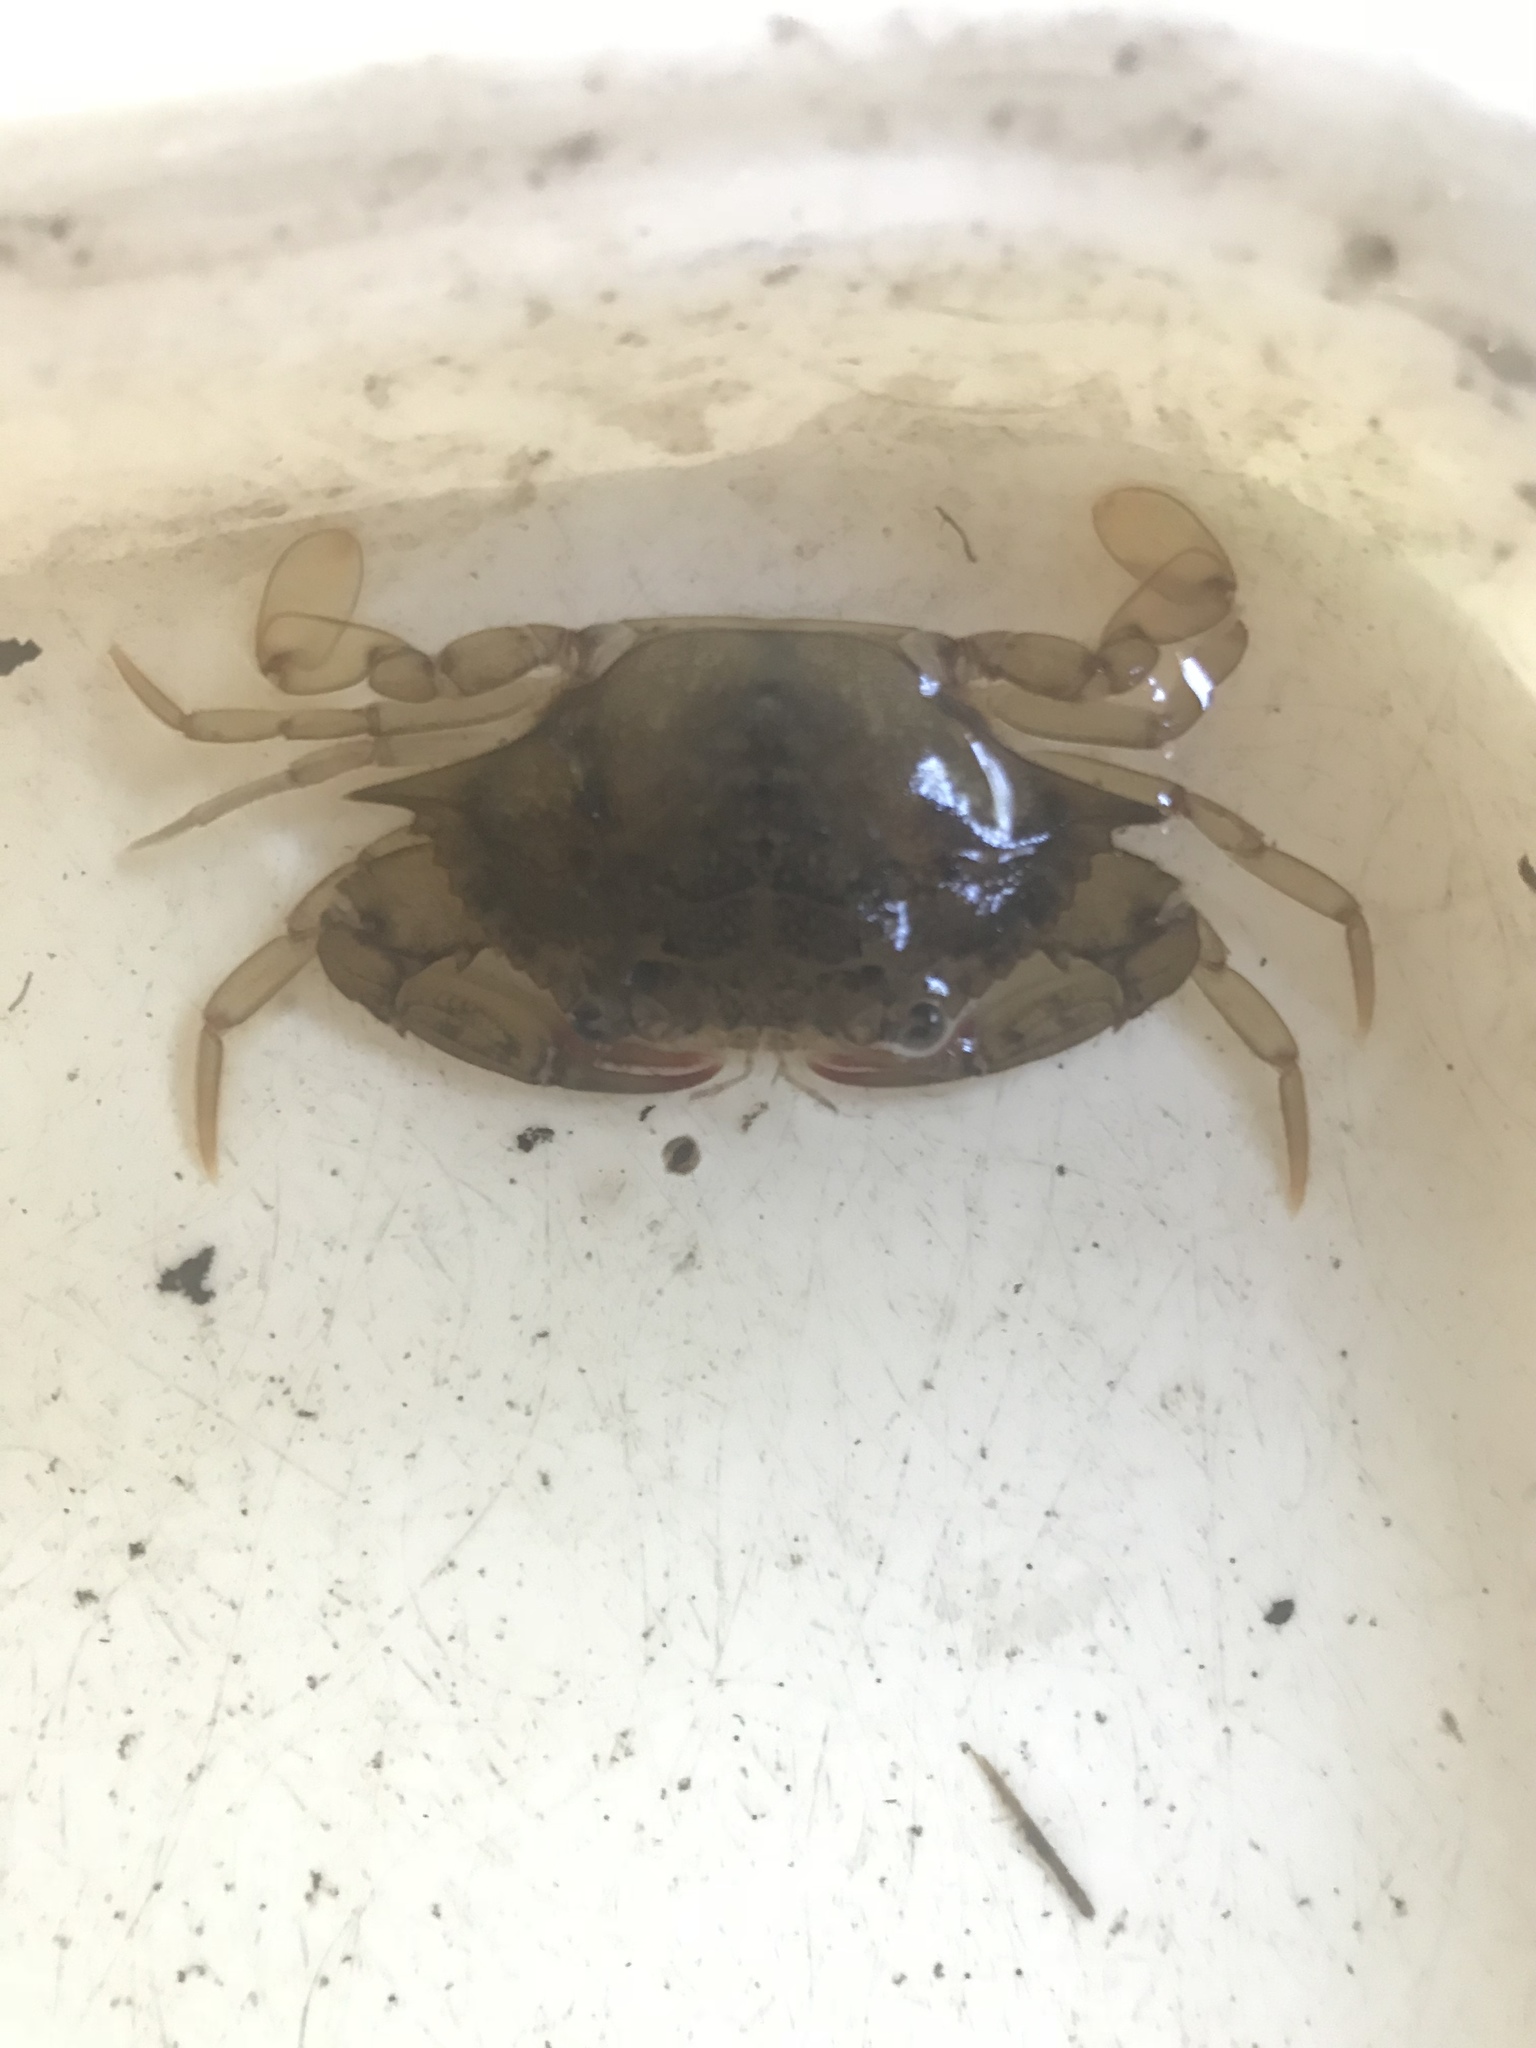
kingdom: Animalia
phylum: Arthropoda
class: Malacostraca
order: Decapoda
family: Portunidae
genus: Callinectes
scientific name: Callinectes sapidus
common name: Blue crab
